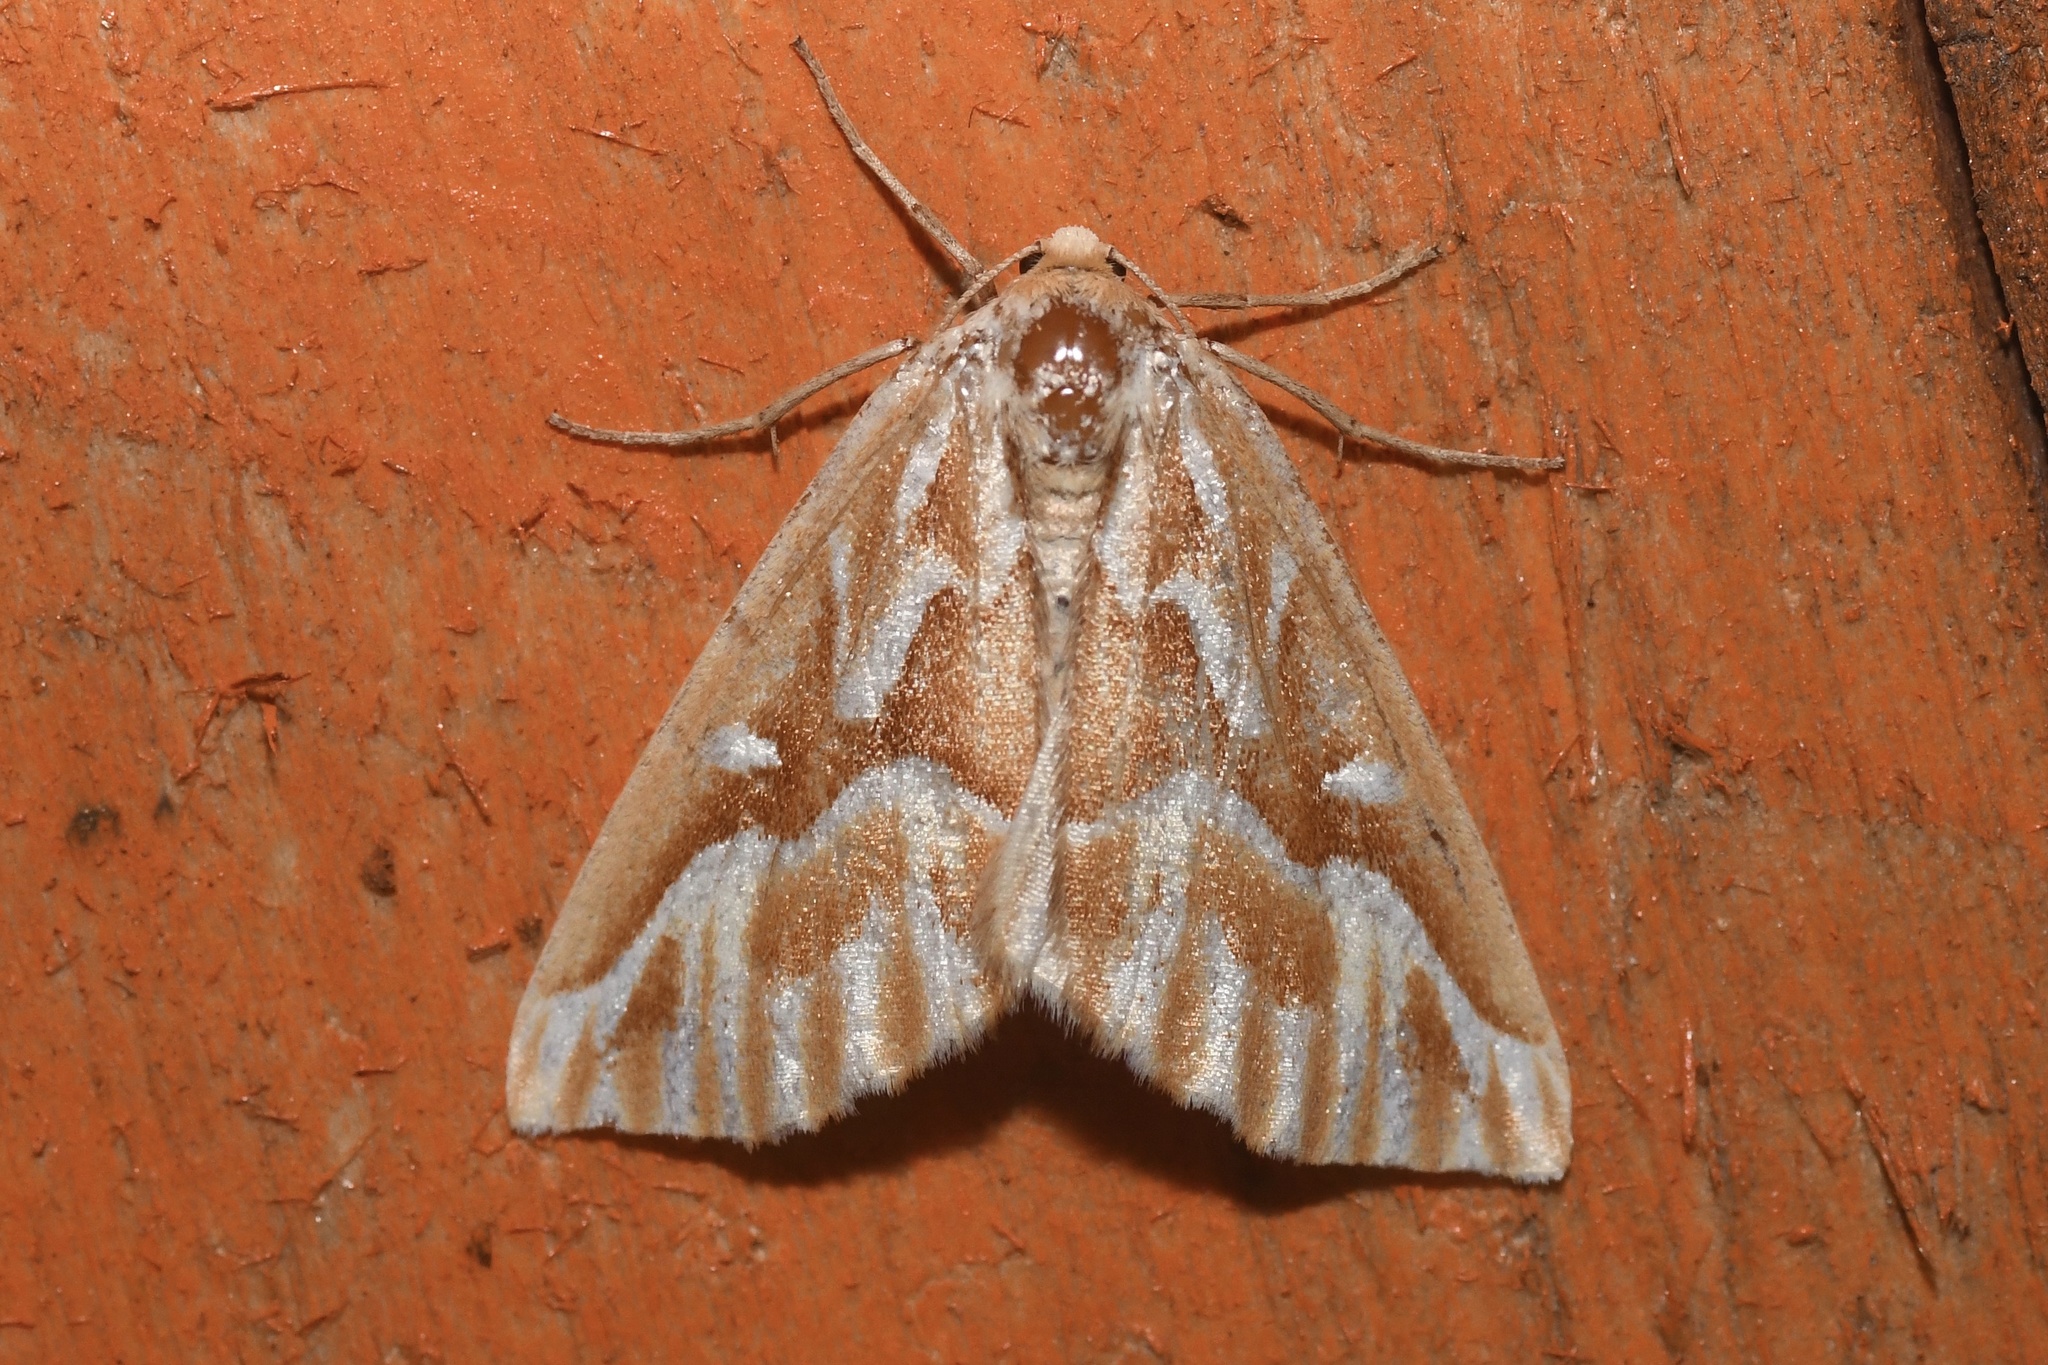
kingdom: Animalia
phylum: Arthropoda
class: Insecta
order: Lepidoptera
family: Geometridae
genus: Caripeta
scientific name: Caripeta piniata
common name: Northern pine looper moth
